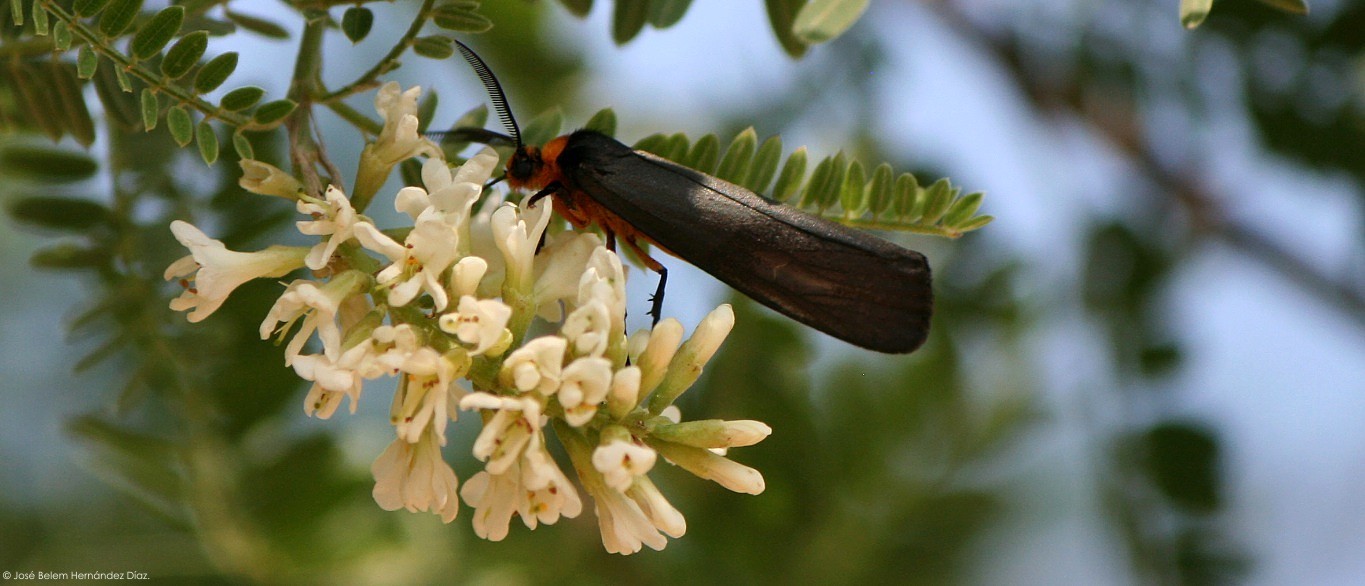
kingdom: Animalia
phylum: Arthropoda
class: Insecta
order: Lepidoptera
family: Erebidae
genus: Gnamptonychia
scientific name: Gnamptonychia ventralis
